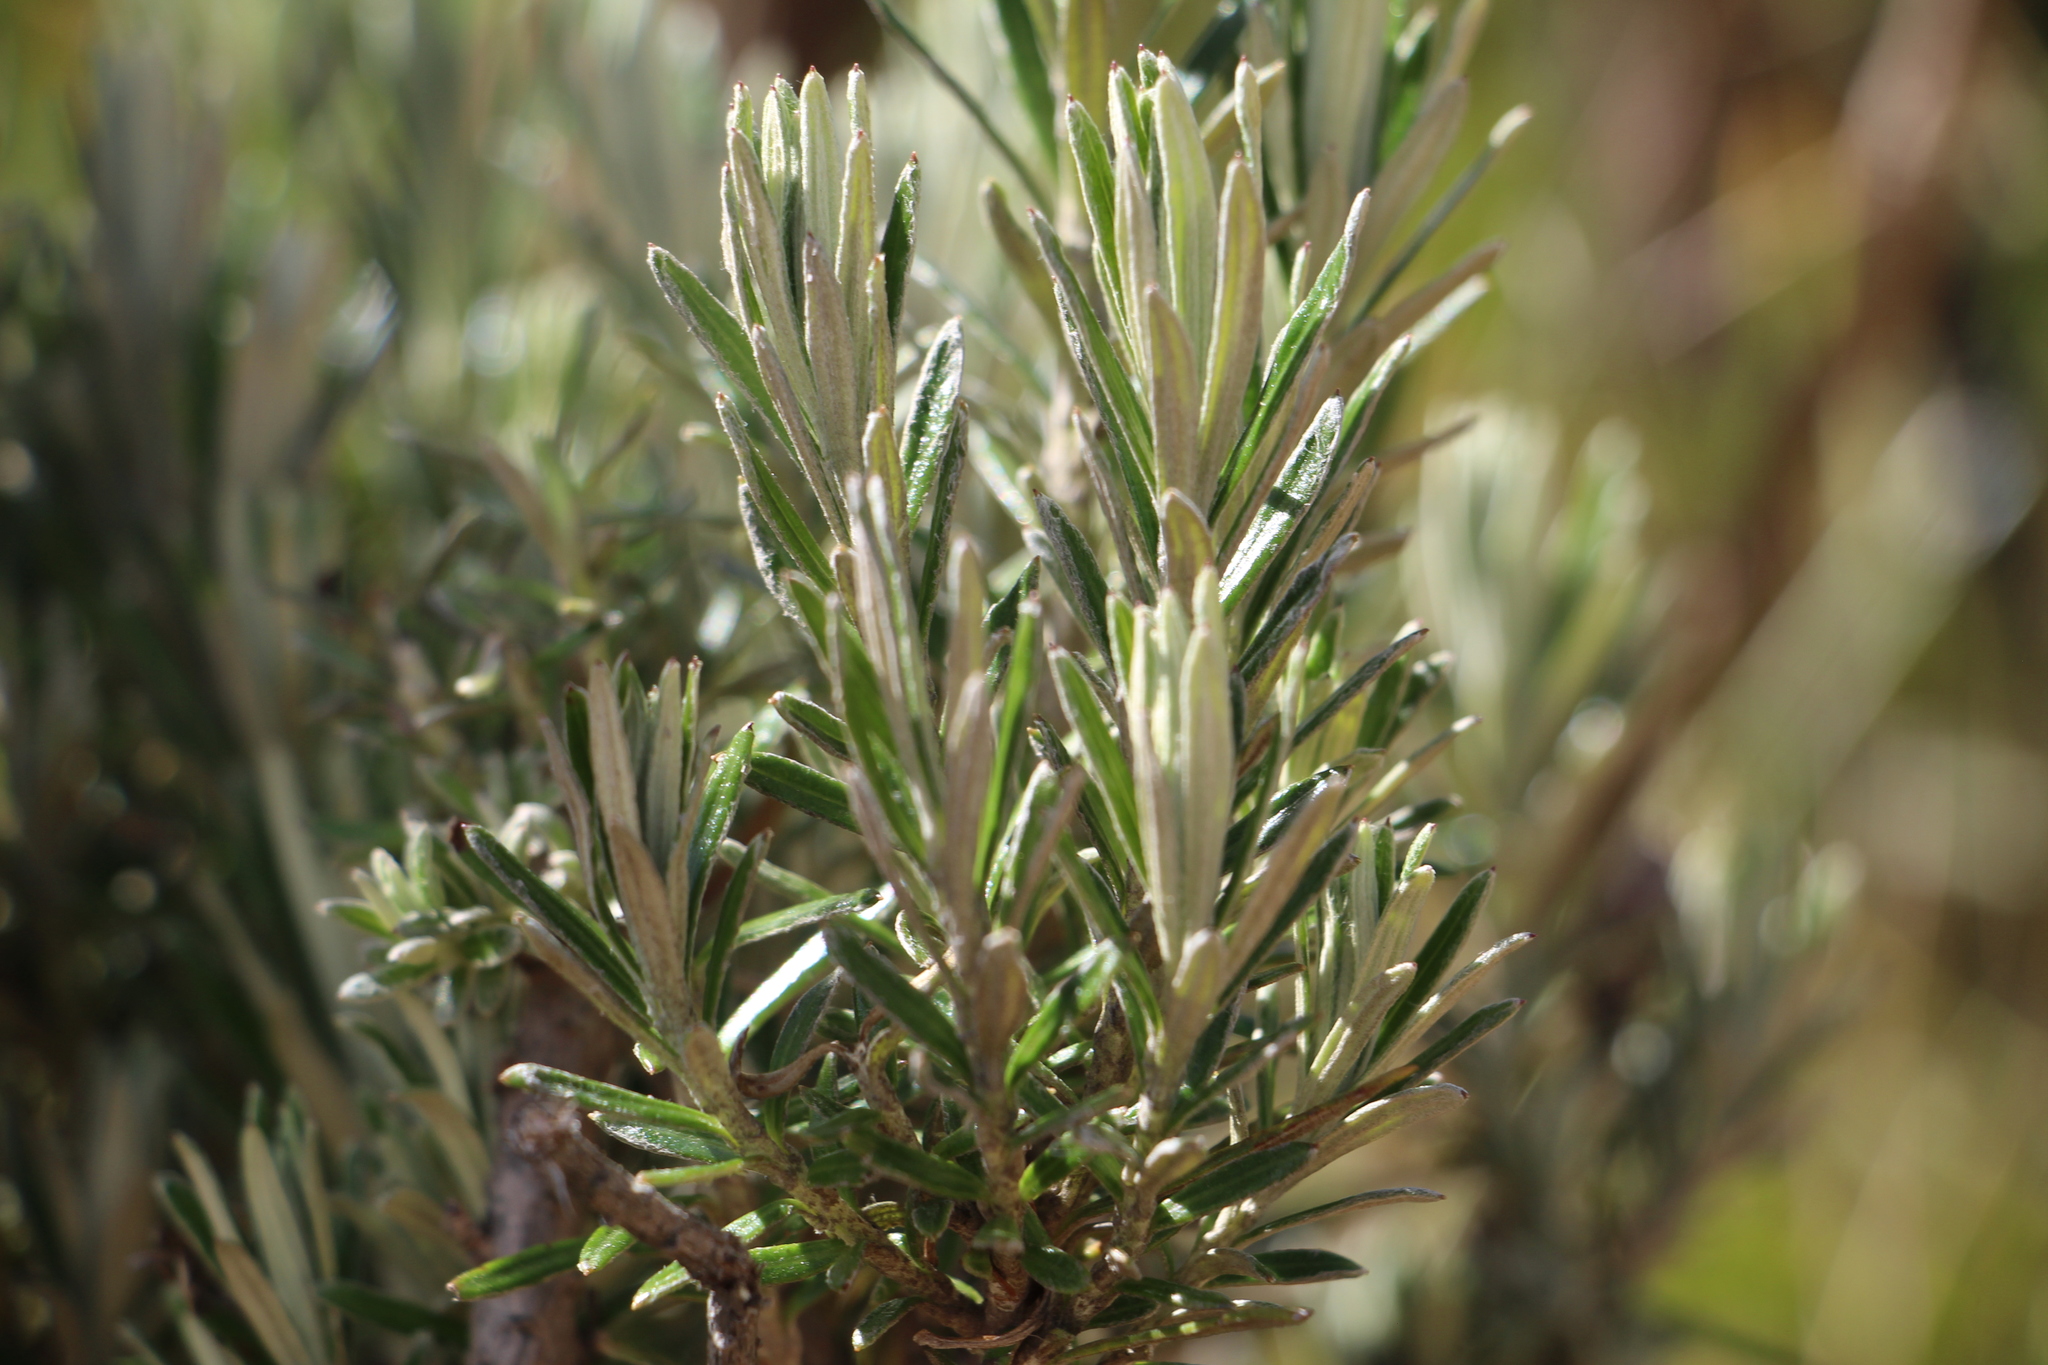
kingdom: Plantae
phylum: Tracheophyta
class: Magnoliopsida
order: Asterales
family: Asteraceae
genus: Linochilus
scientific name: Linochilus rosmarinifolius
